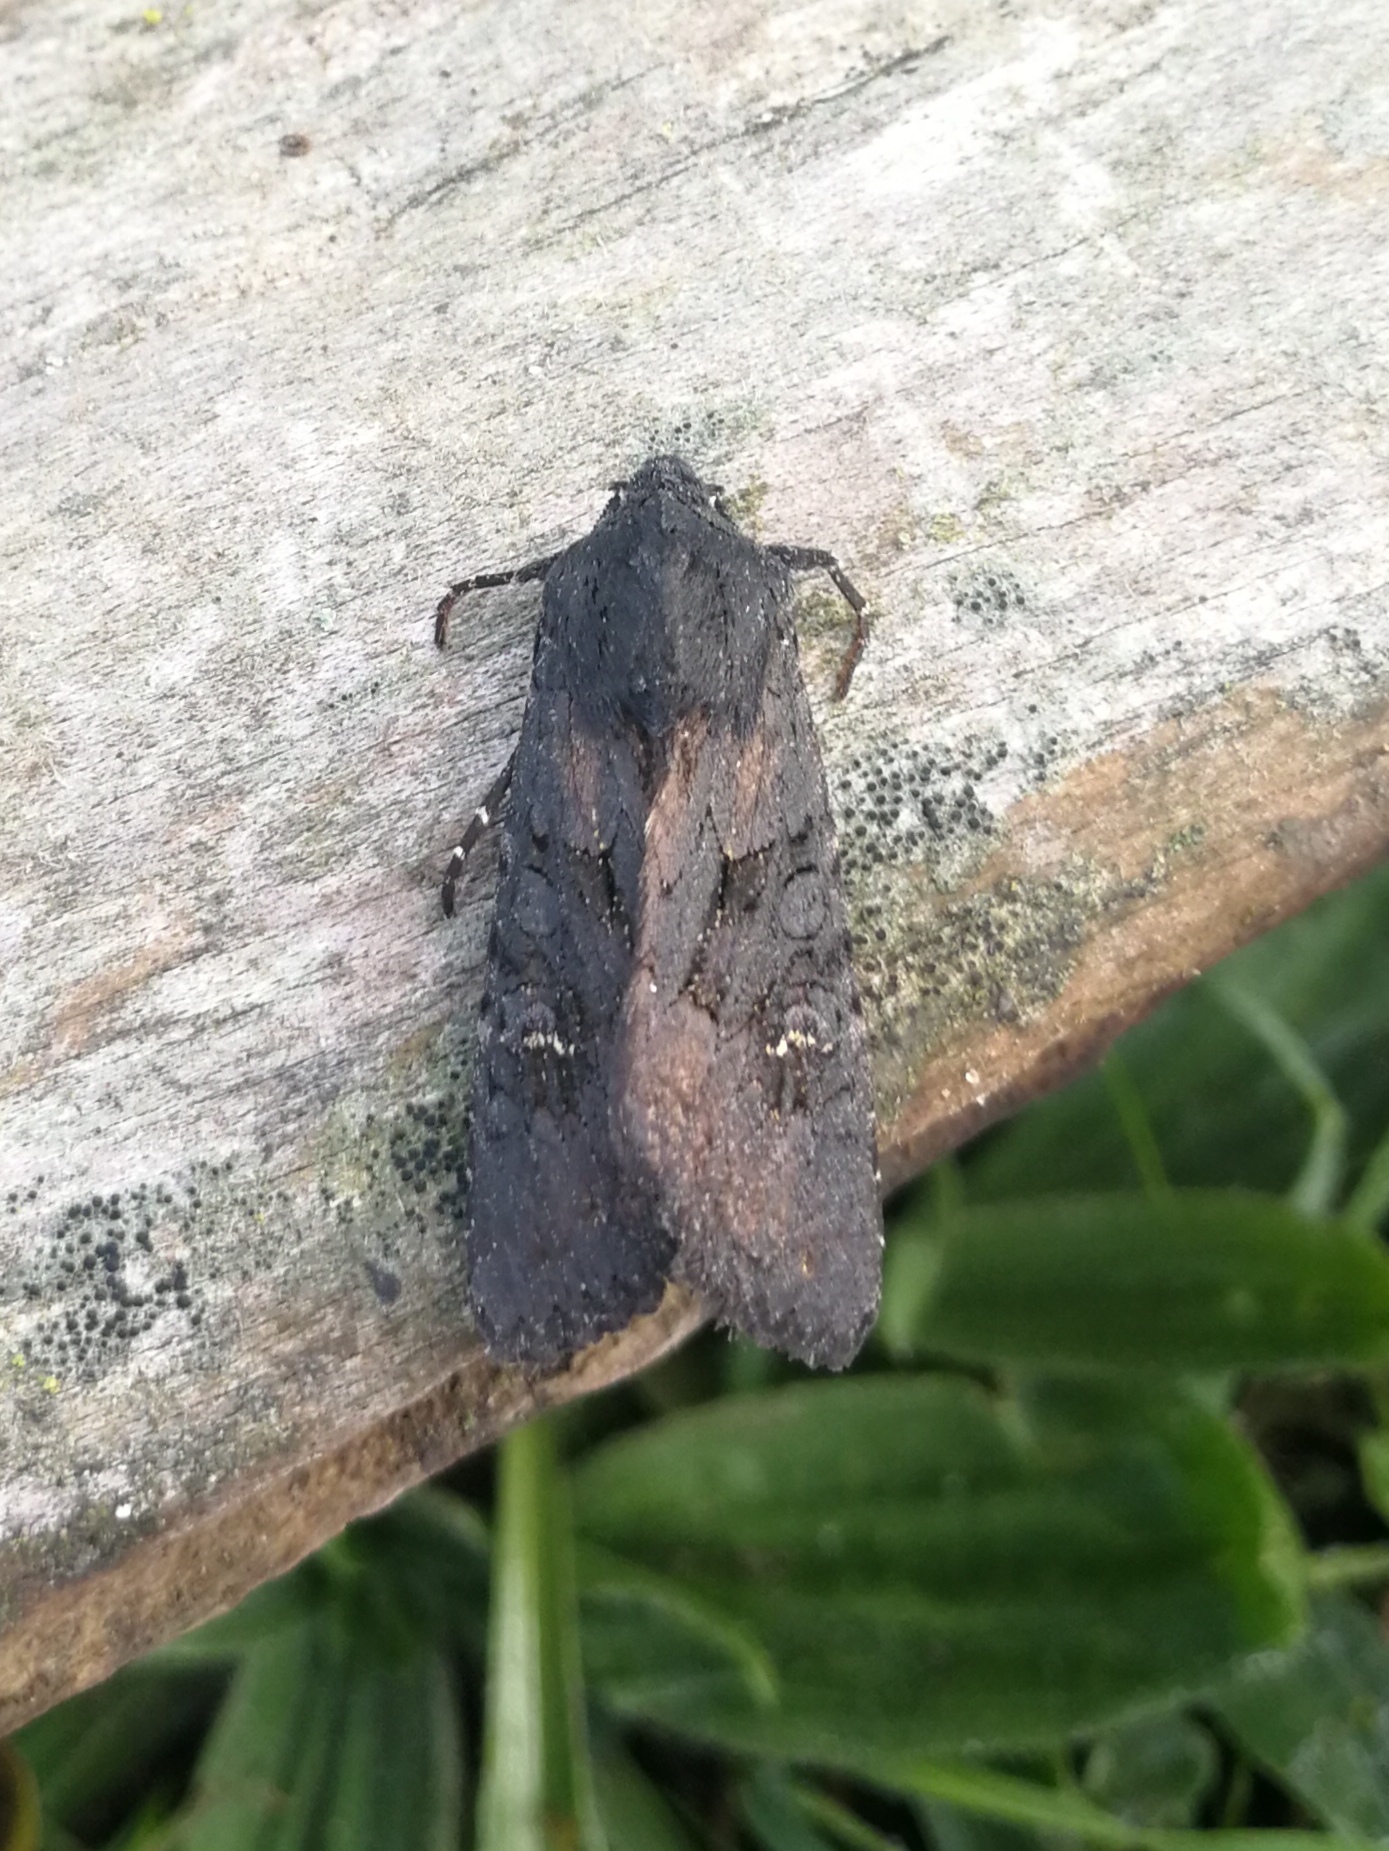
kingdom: Animalia
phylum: Arthropoda
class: Insecta
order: Lepidoptera
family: Noctuidae
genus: Aporophyla
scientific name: Aporophyla nigra
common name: Black rustic
